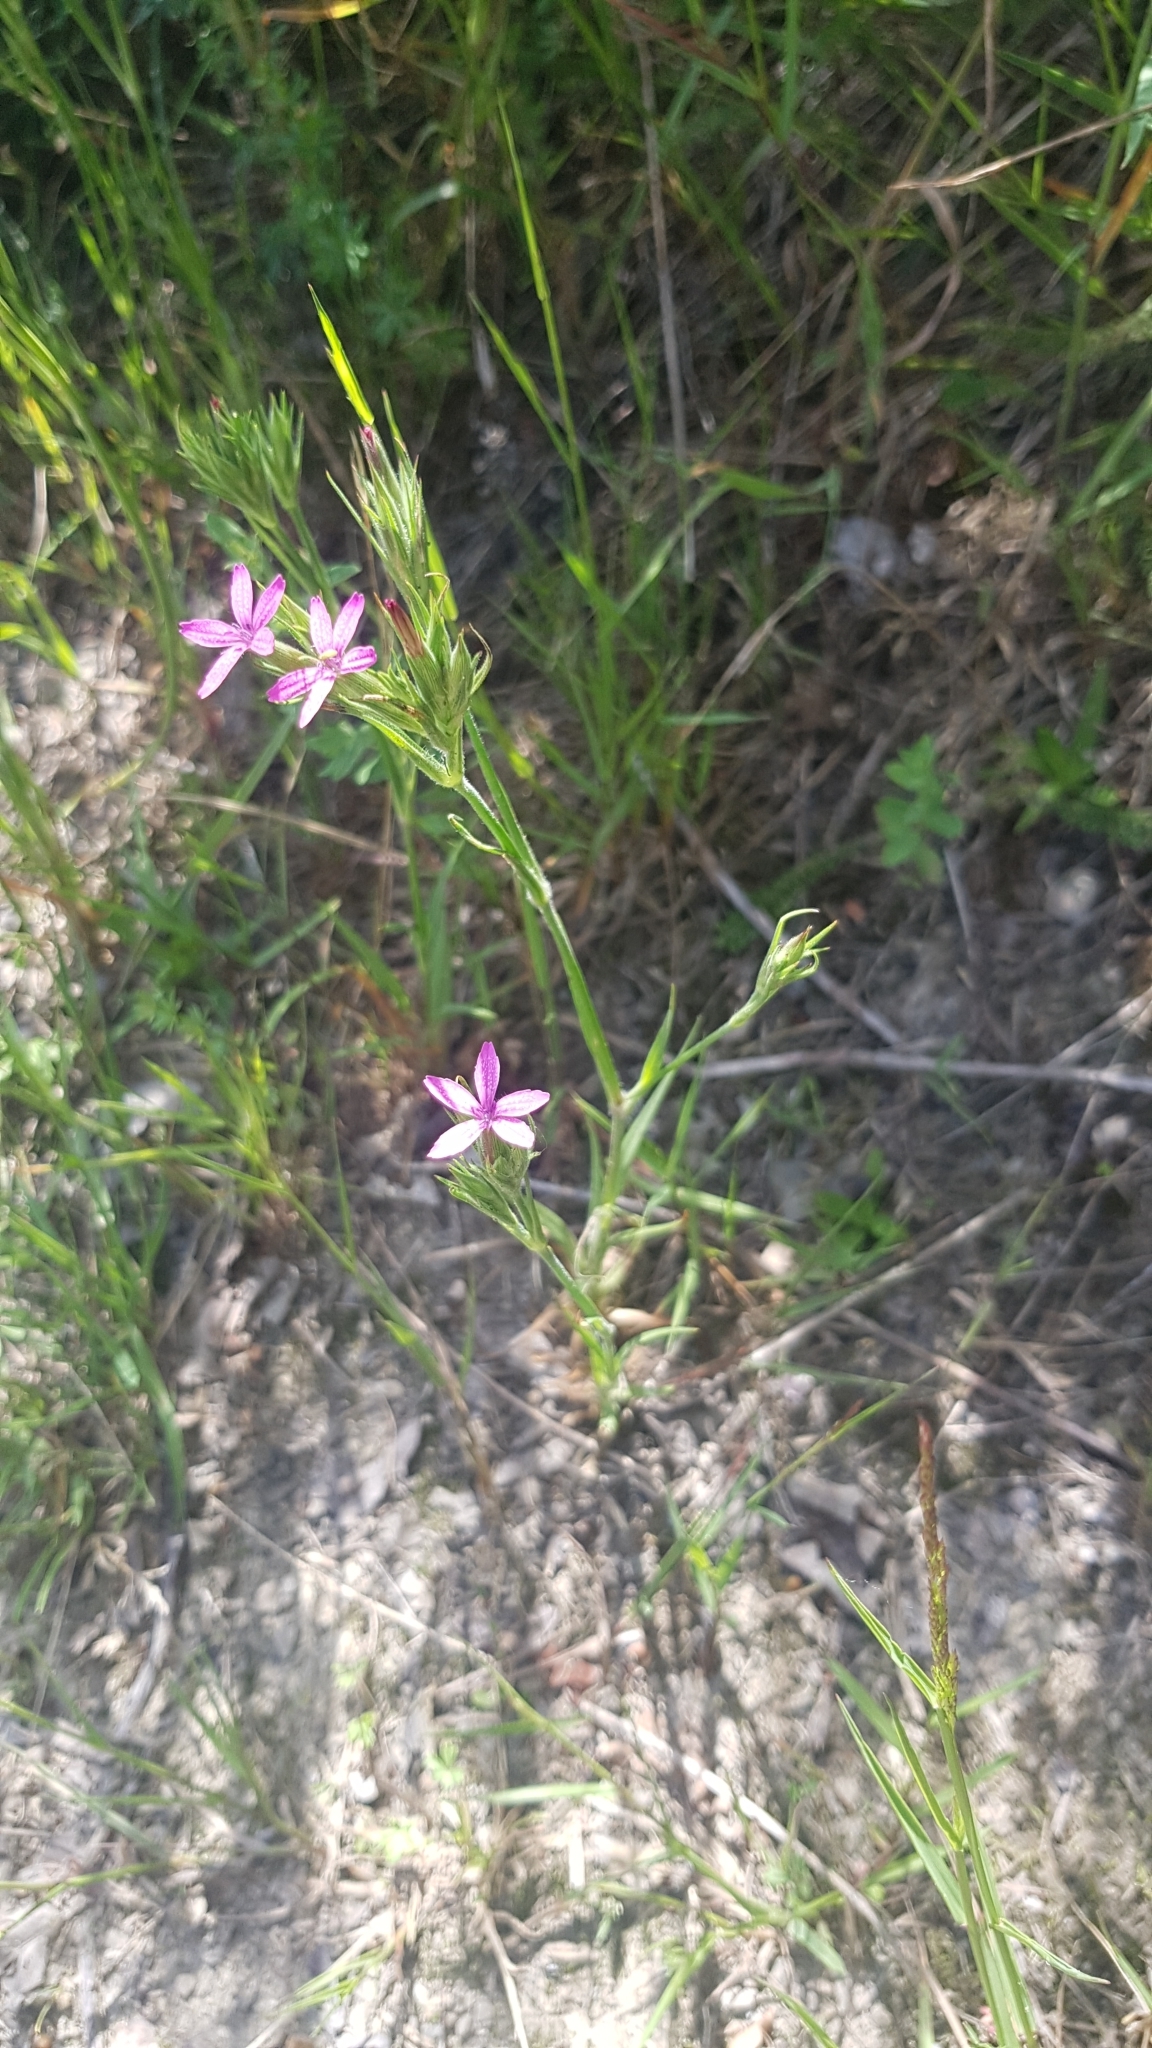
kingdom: Plantae
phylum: Tracheophyta
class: Magnoliopsida
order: Caryophyllales
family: Caryophyllaceae
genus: Dianthus
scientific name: Dianthus armeria
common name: Deptford pink
